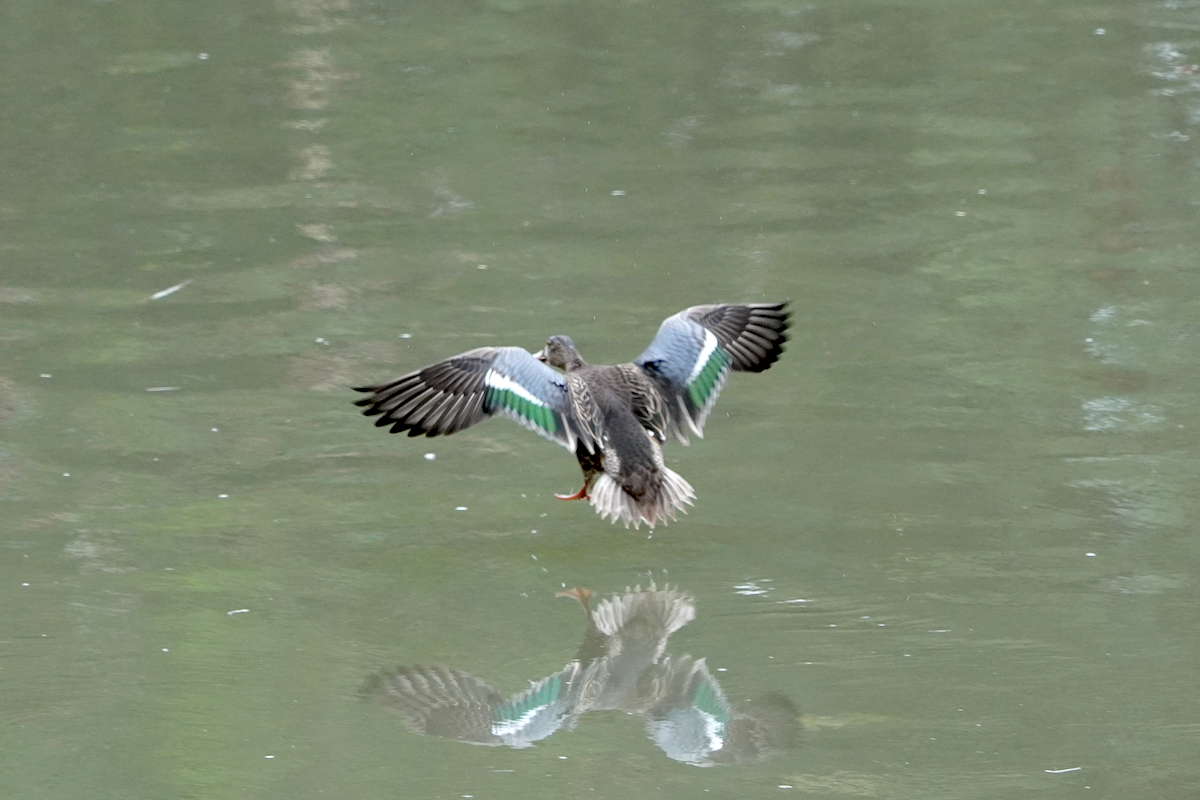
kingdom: Animalia
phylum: Chordata
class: Aves
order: Anseriformes
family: Anatidae
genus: Spatula
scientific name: Spatula clypeata
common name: Northern shoveler
